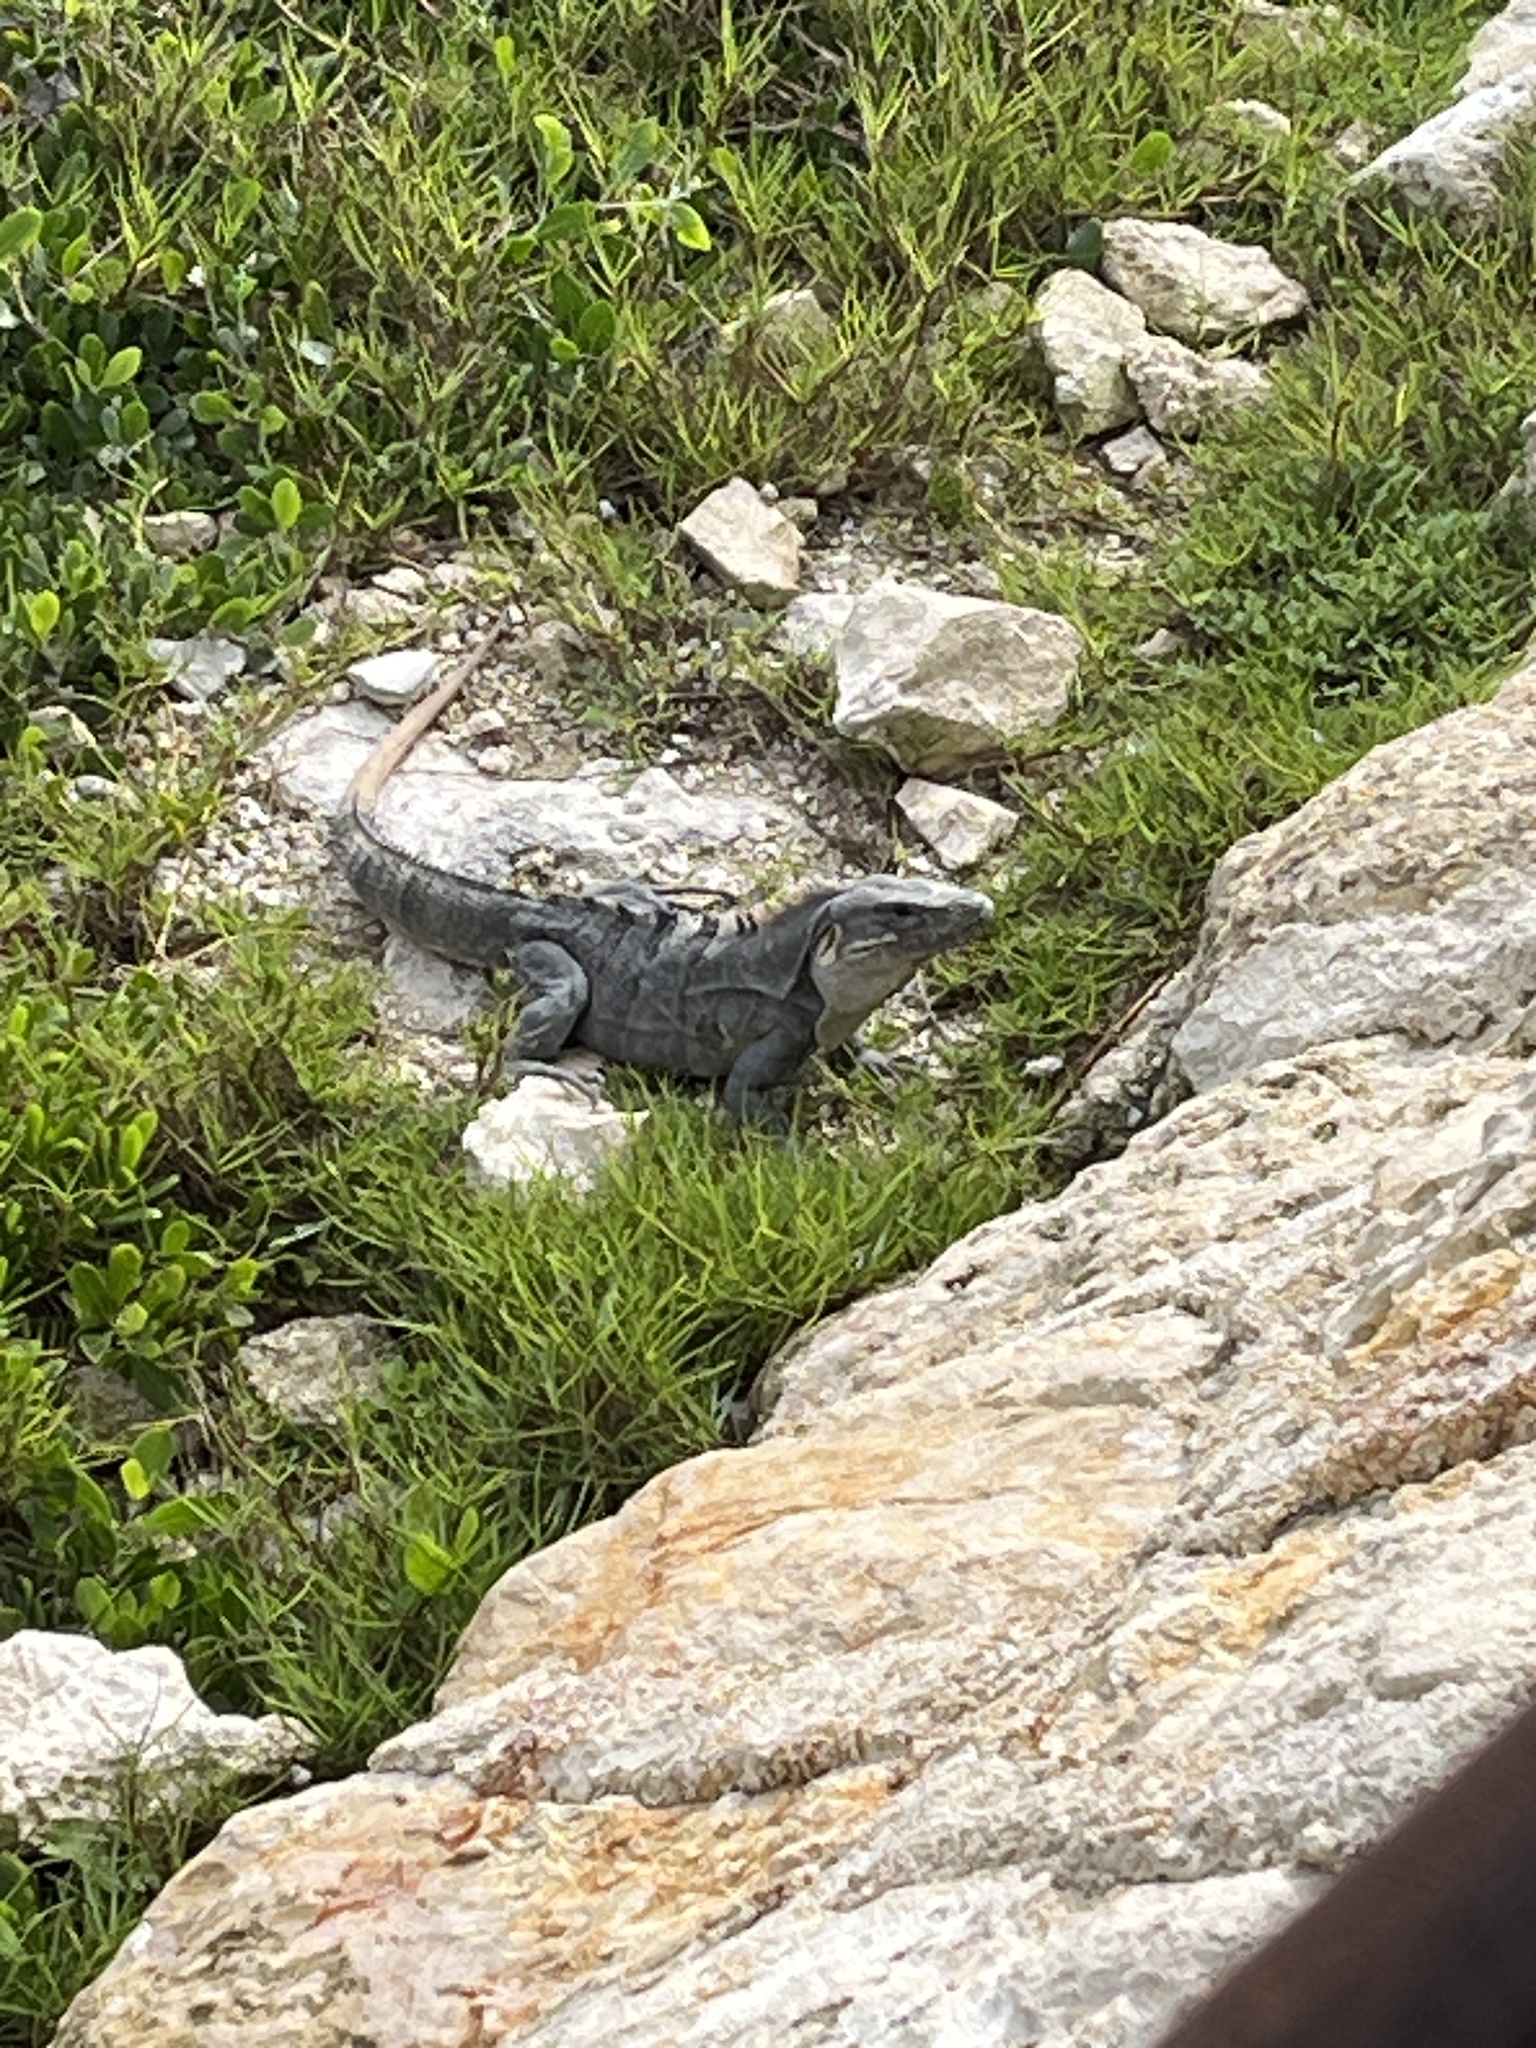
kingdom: Animalia
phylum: Chordata
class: Squamata
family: Iguanidae
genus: Ctenosaura
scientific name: Ctenosaura similis
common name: Black spiny-tailed iguana
